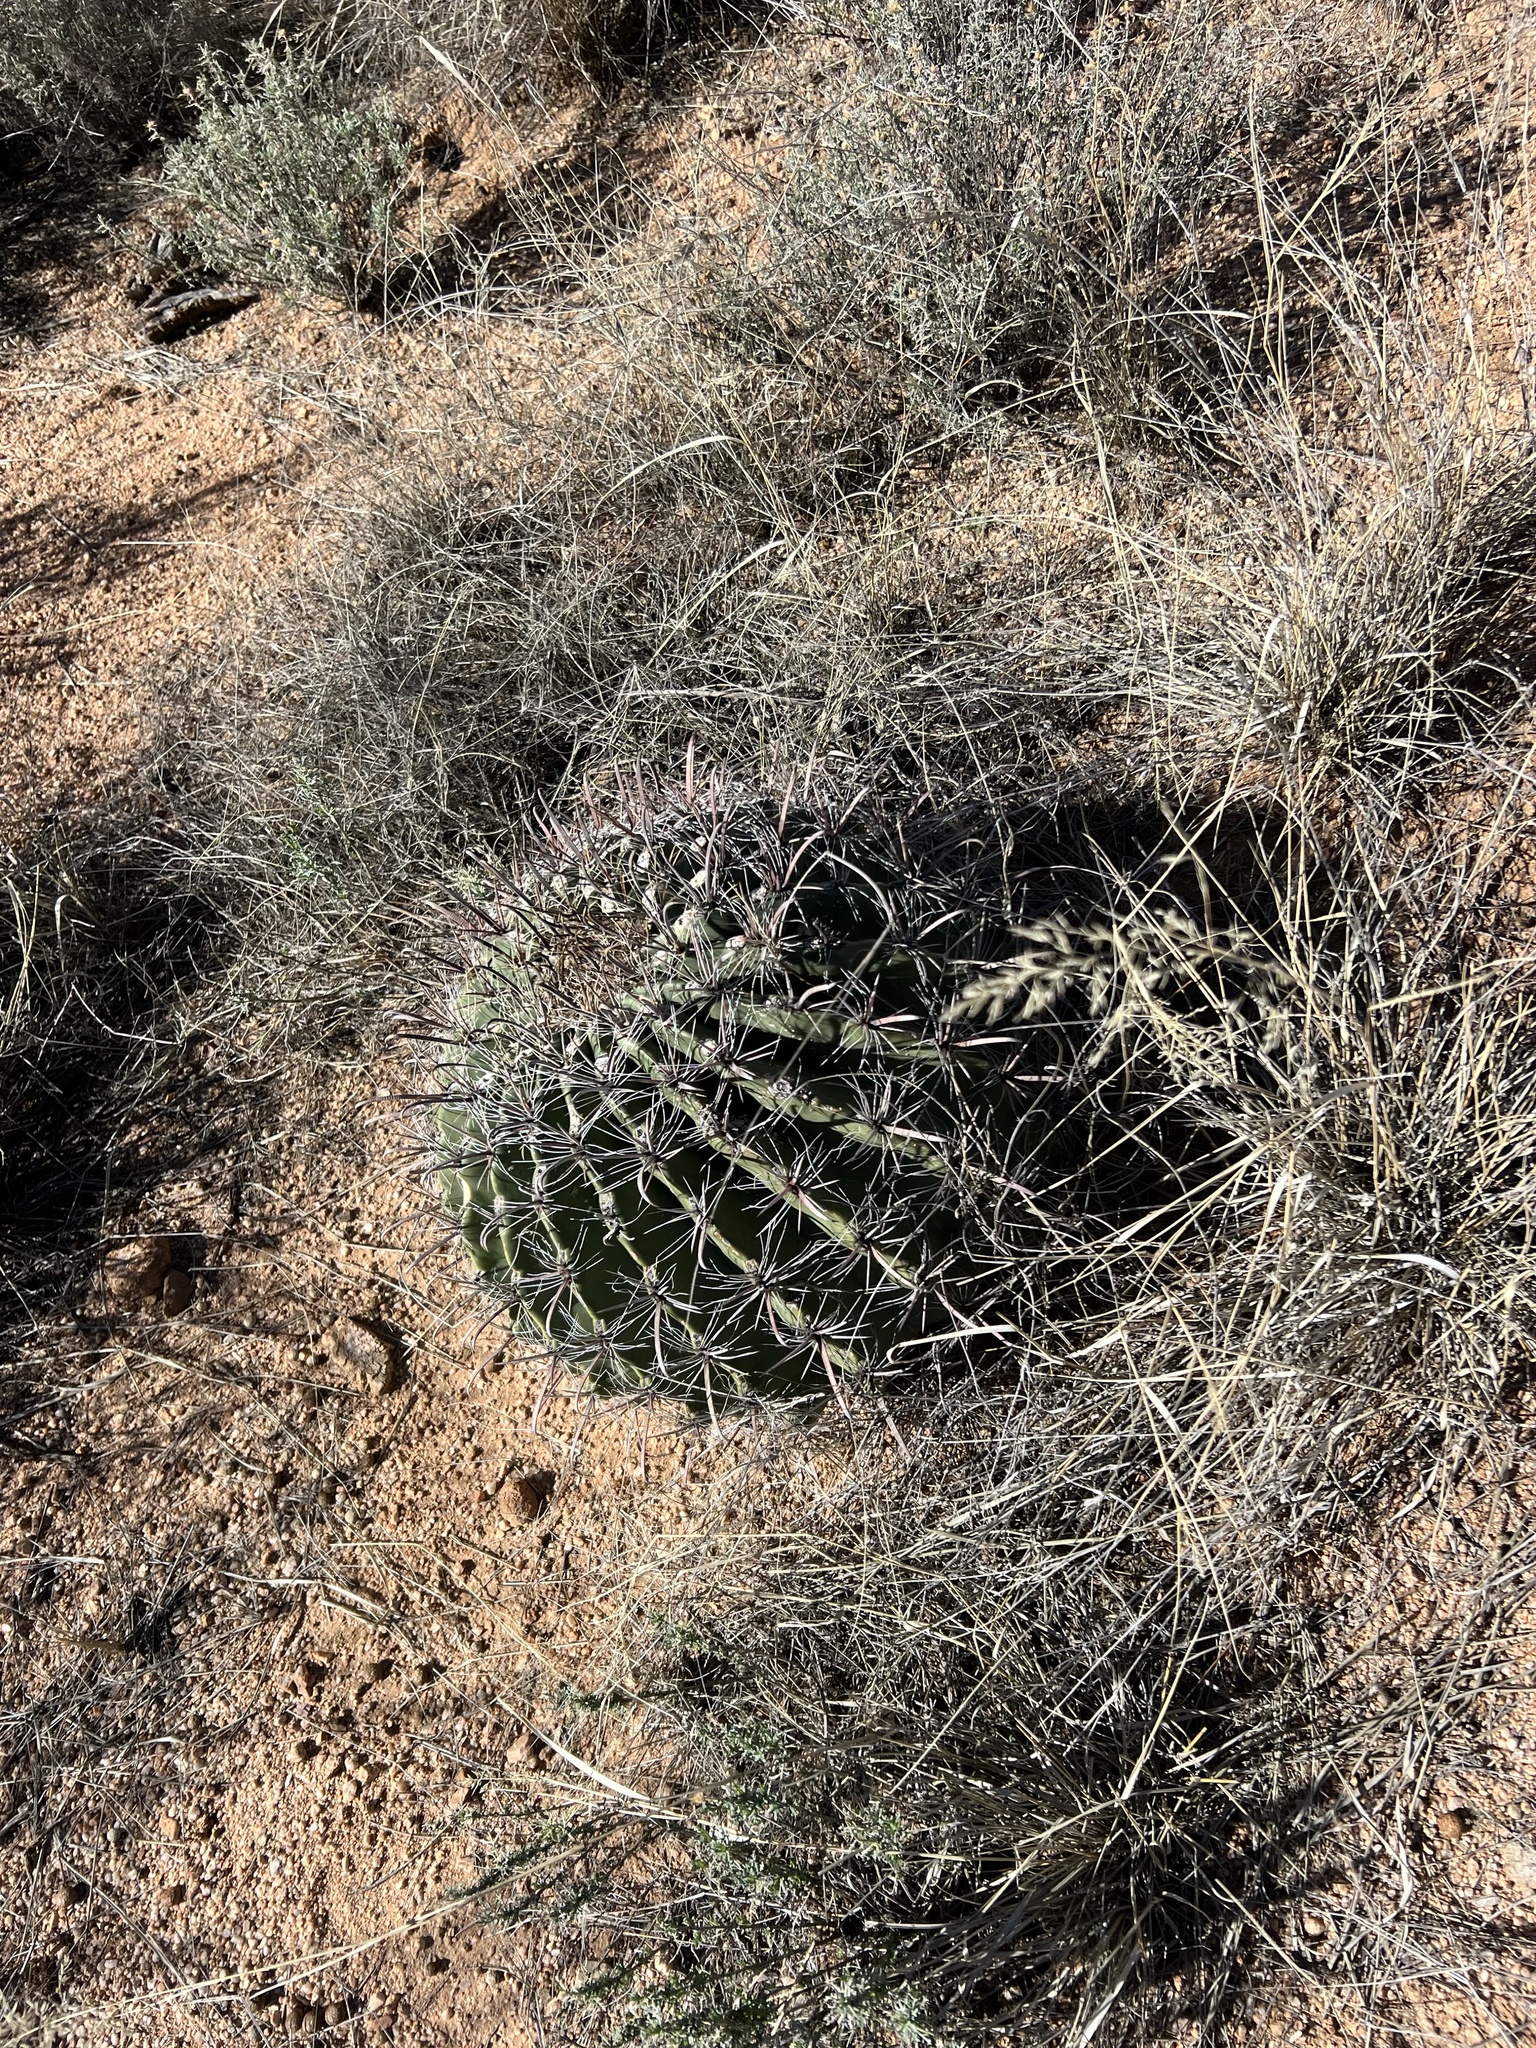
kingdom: Plantae
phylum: Tracheophyta
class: Magnoliopsida
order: Caryophyllales
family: Cactaceae
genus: Ferocactus
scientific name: Ferocactus wislizeni
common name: Candy barrel cactus
